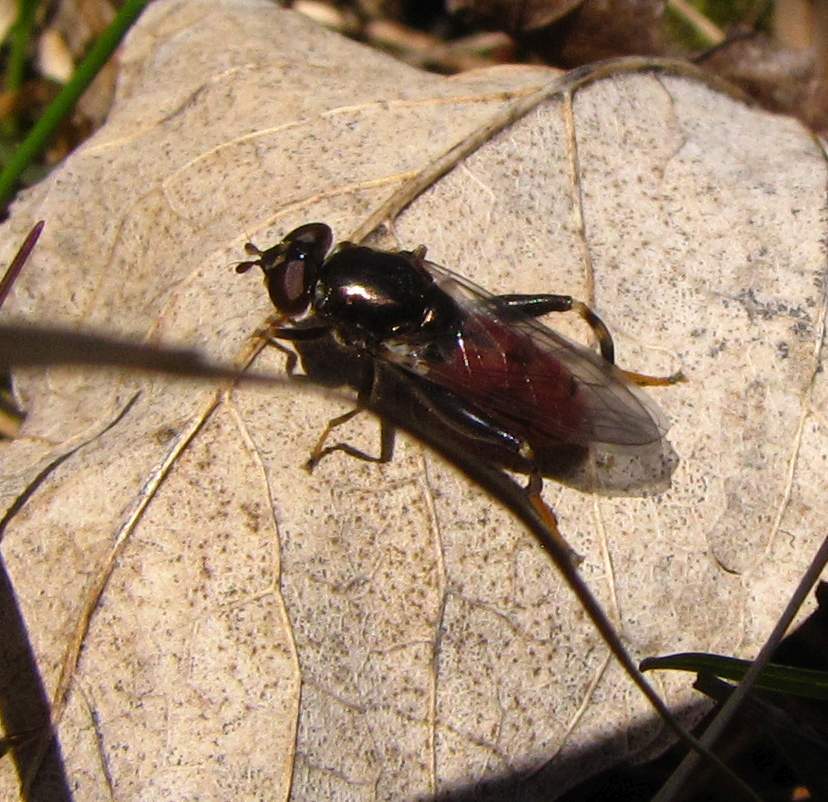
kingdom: Animalia
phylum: Arthropoda
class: Insecta
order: Diptera
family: Syrphidae
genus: Chalcosyrphus
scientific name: Chalcosyrphus libo
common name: Long-haired forest fly
